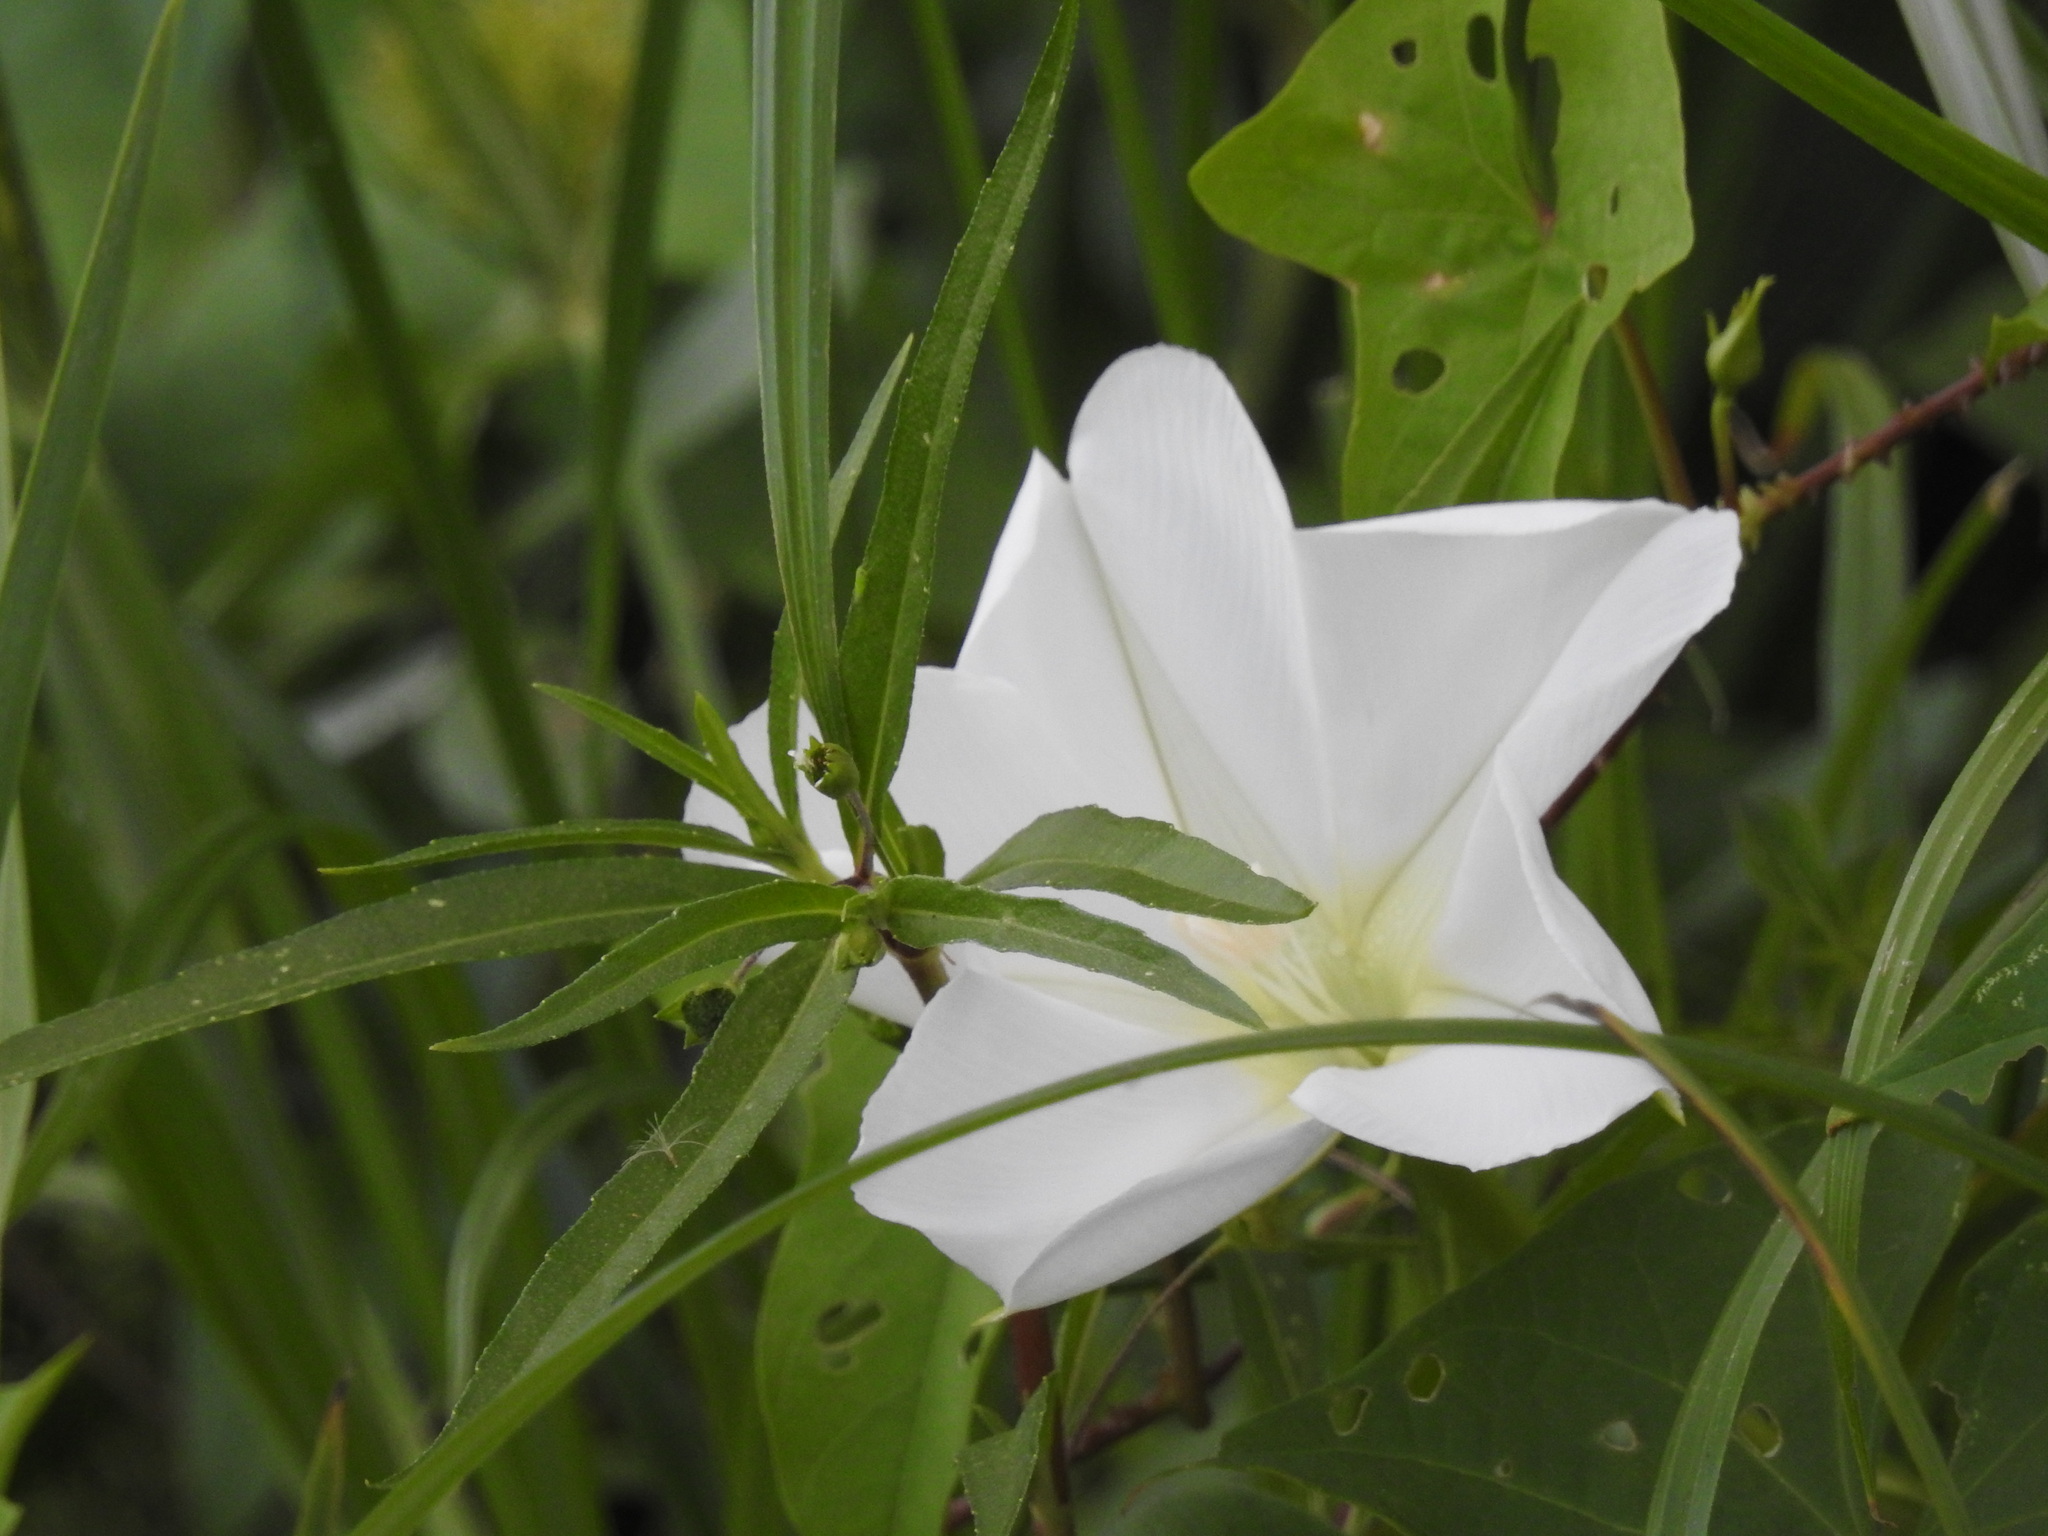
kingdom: Plantae
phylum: Tracheophyta
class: Magnoliopsida
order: Solanales
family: Convolvulaceae
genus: Ipomoea
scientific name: Ipomoea alba
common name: Moonflower
